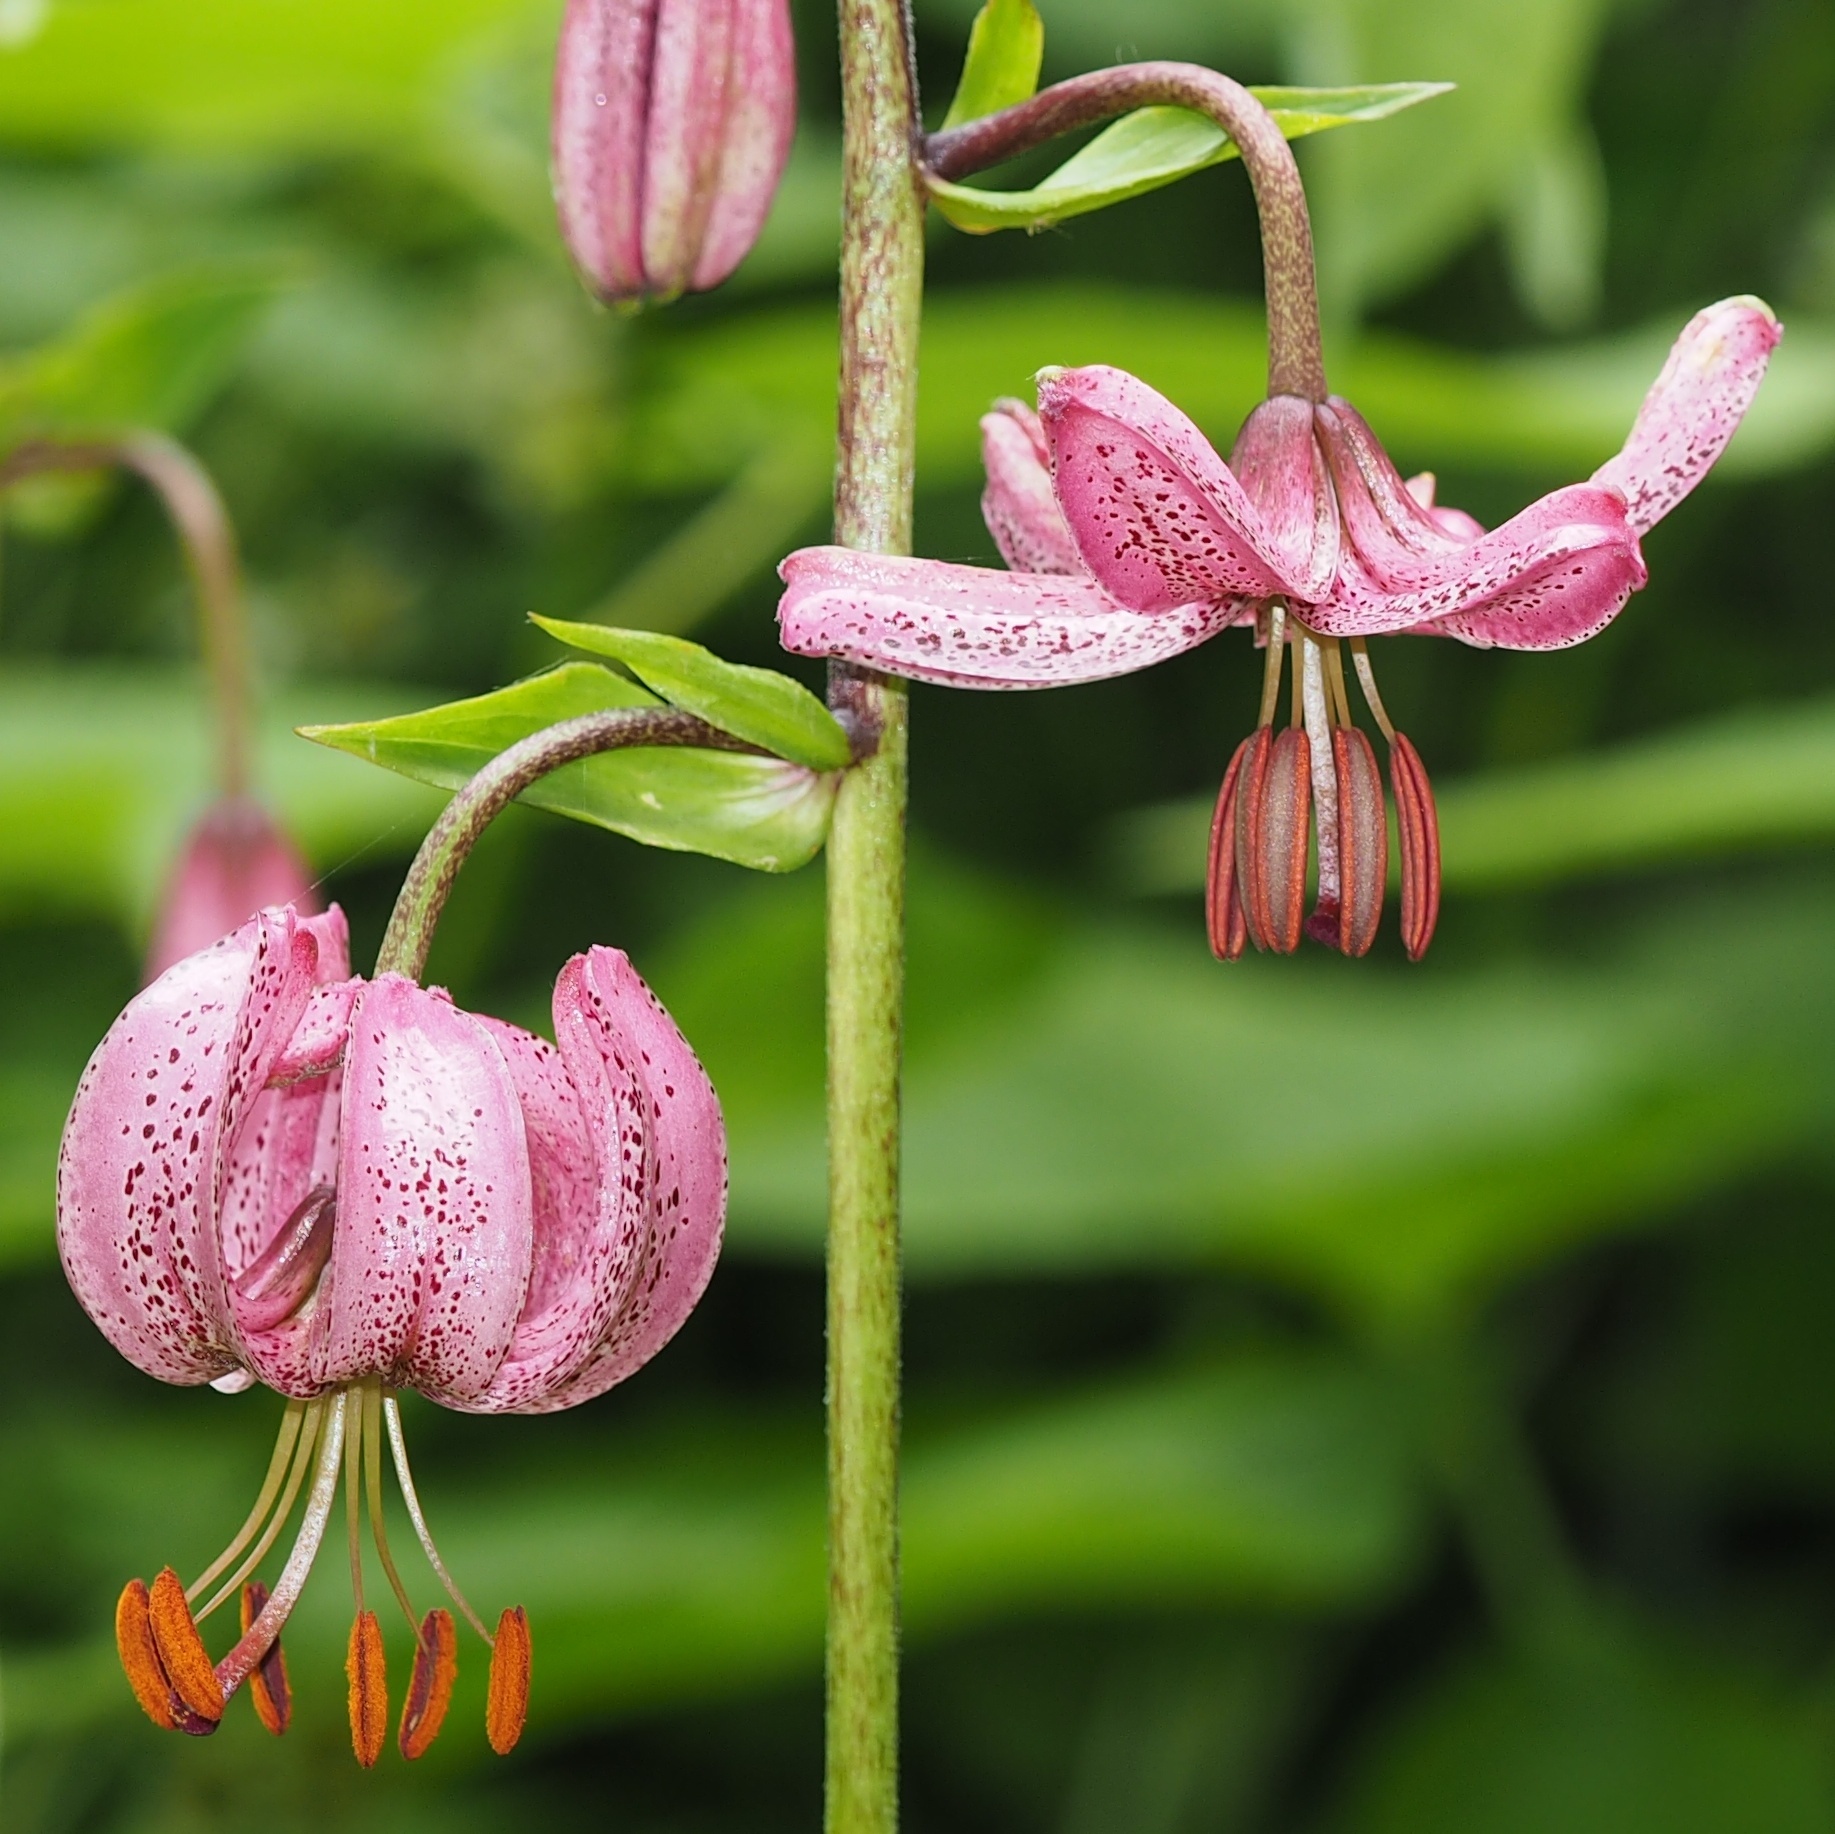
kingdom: Plantae
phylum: Tracheophyta
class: Liliopsida
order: Liliales
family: Liliaceae
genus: Lilium
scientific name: Lilium martagon
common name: Martagon lily
